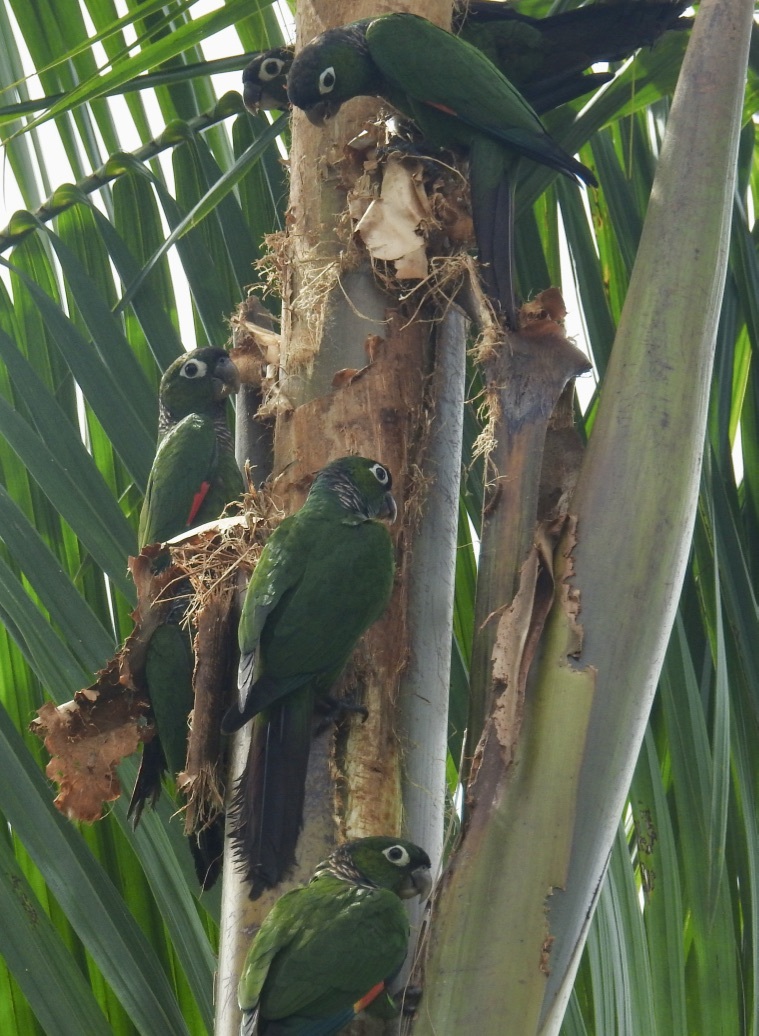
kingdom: Animalia
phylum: Chordata
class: Aves
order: Psittaciformes
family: Psittacidae
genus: Pyrrhura
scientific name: Pyrrhura melanura
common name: Maroon-tailed parakeet
